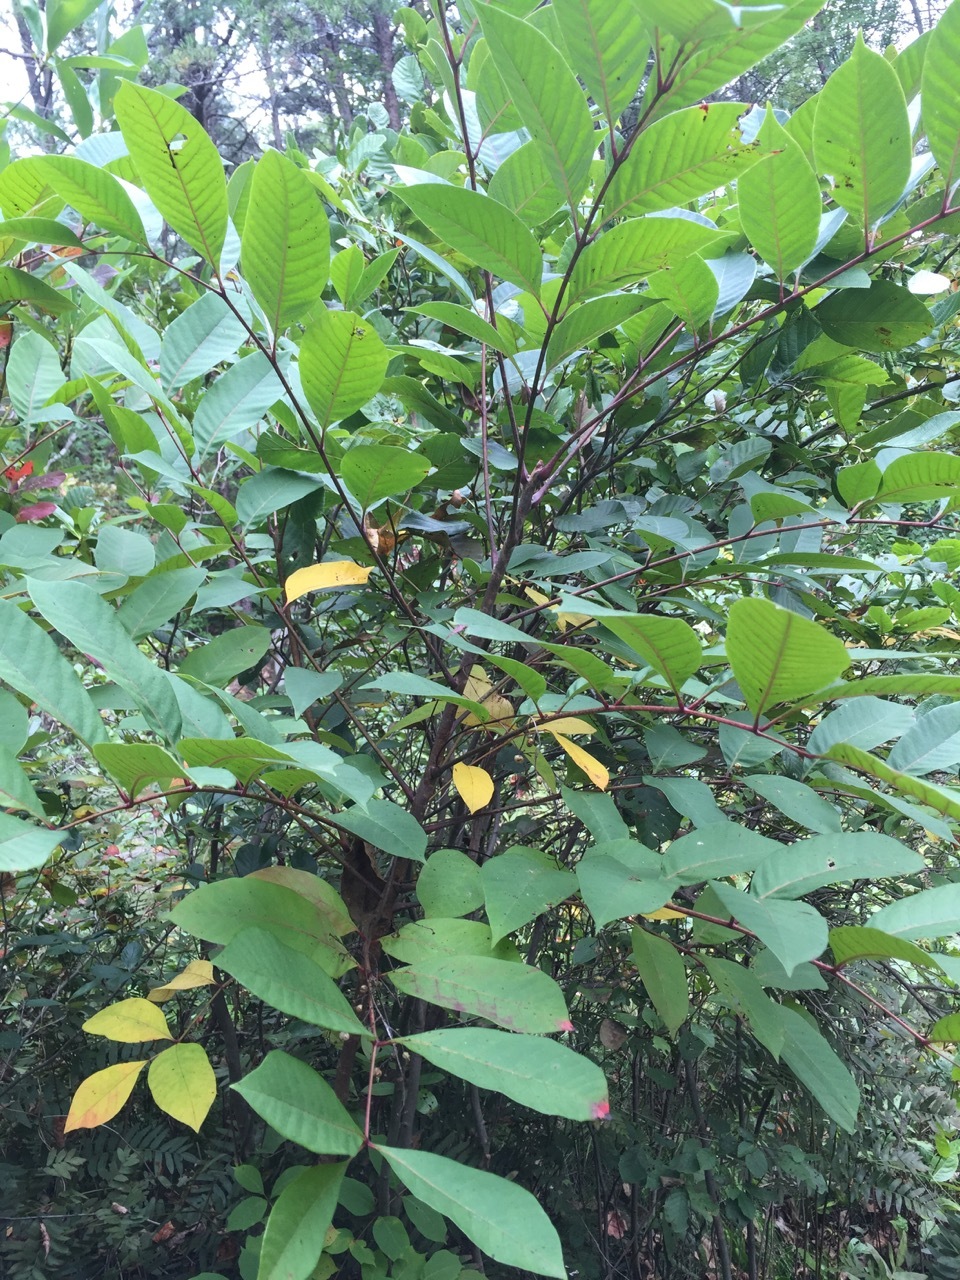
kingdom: Plantae
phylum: Tracheophyta
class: Magnoliopsida
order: Sapindales
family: Anacardiaceae
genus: Toxicodendron
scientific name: Toxicodendron vernix
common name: Poison sumac
